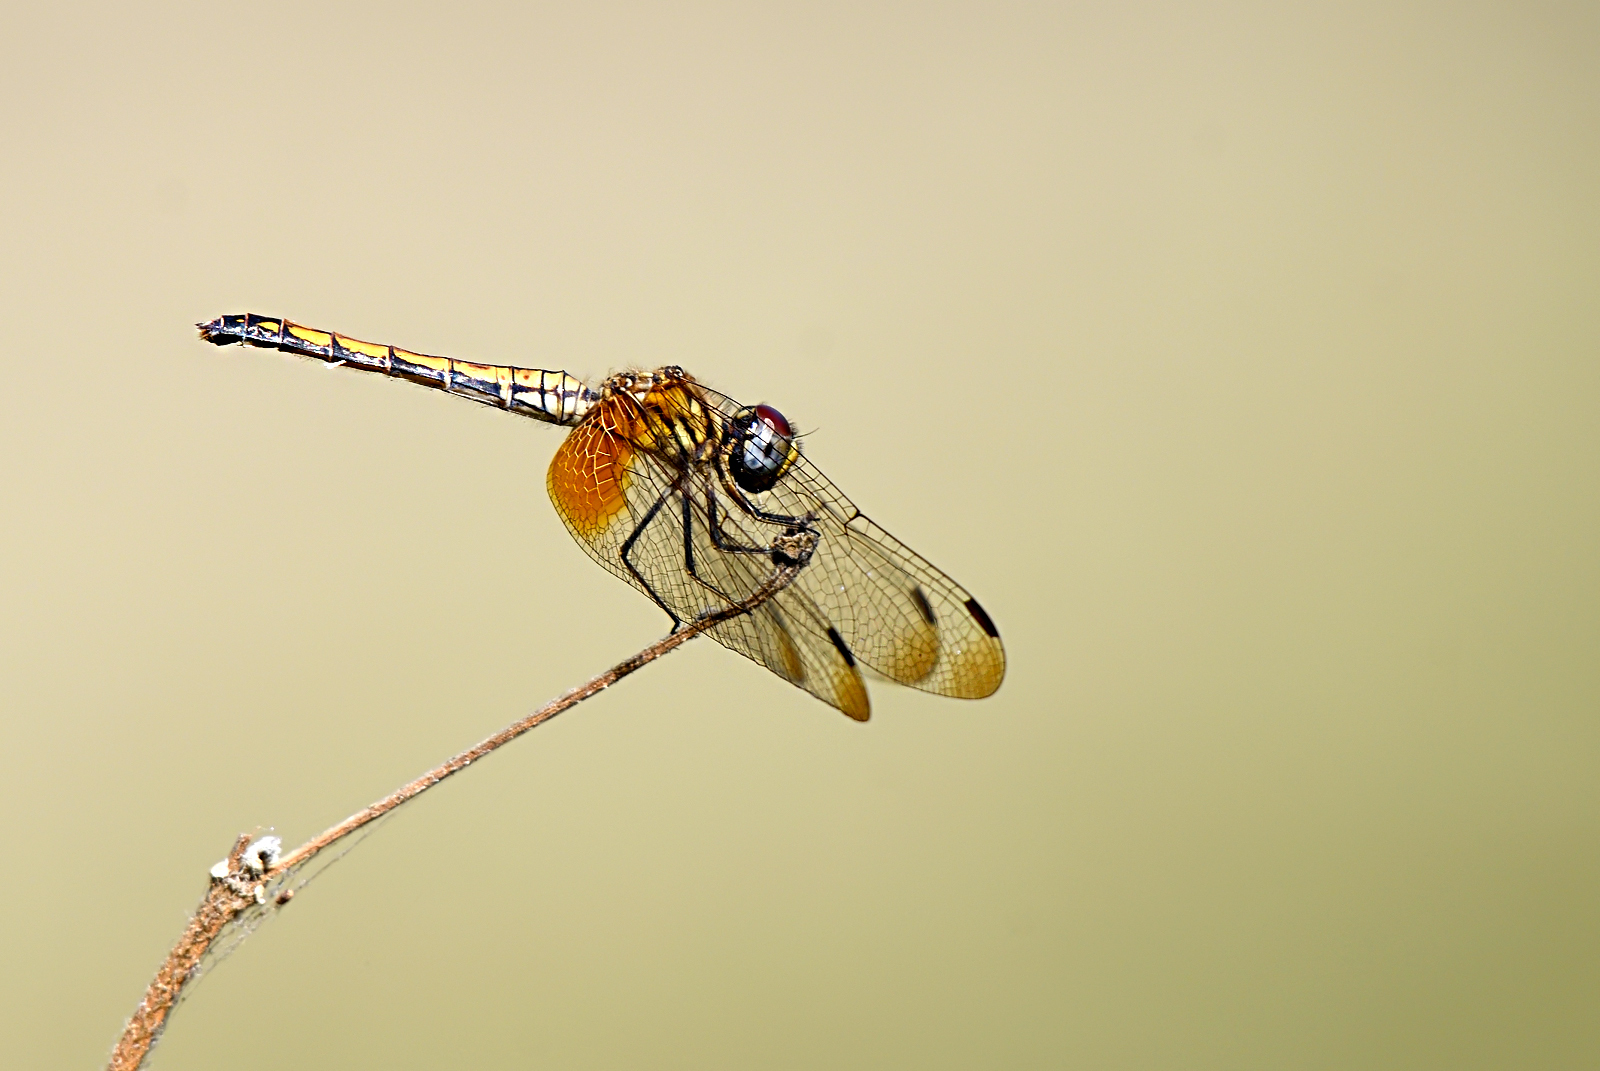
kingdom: Animalia
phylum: Arthropoda
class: Insecta
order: Odonata
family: Libellulidae
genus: Trithemis
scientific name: Trithemis aurora
